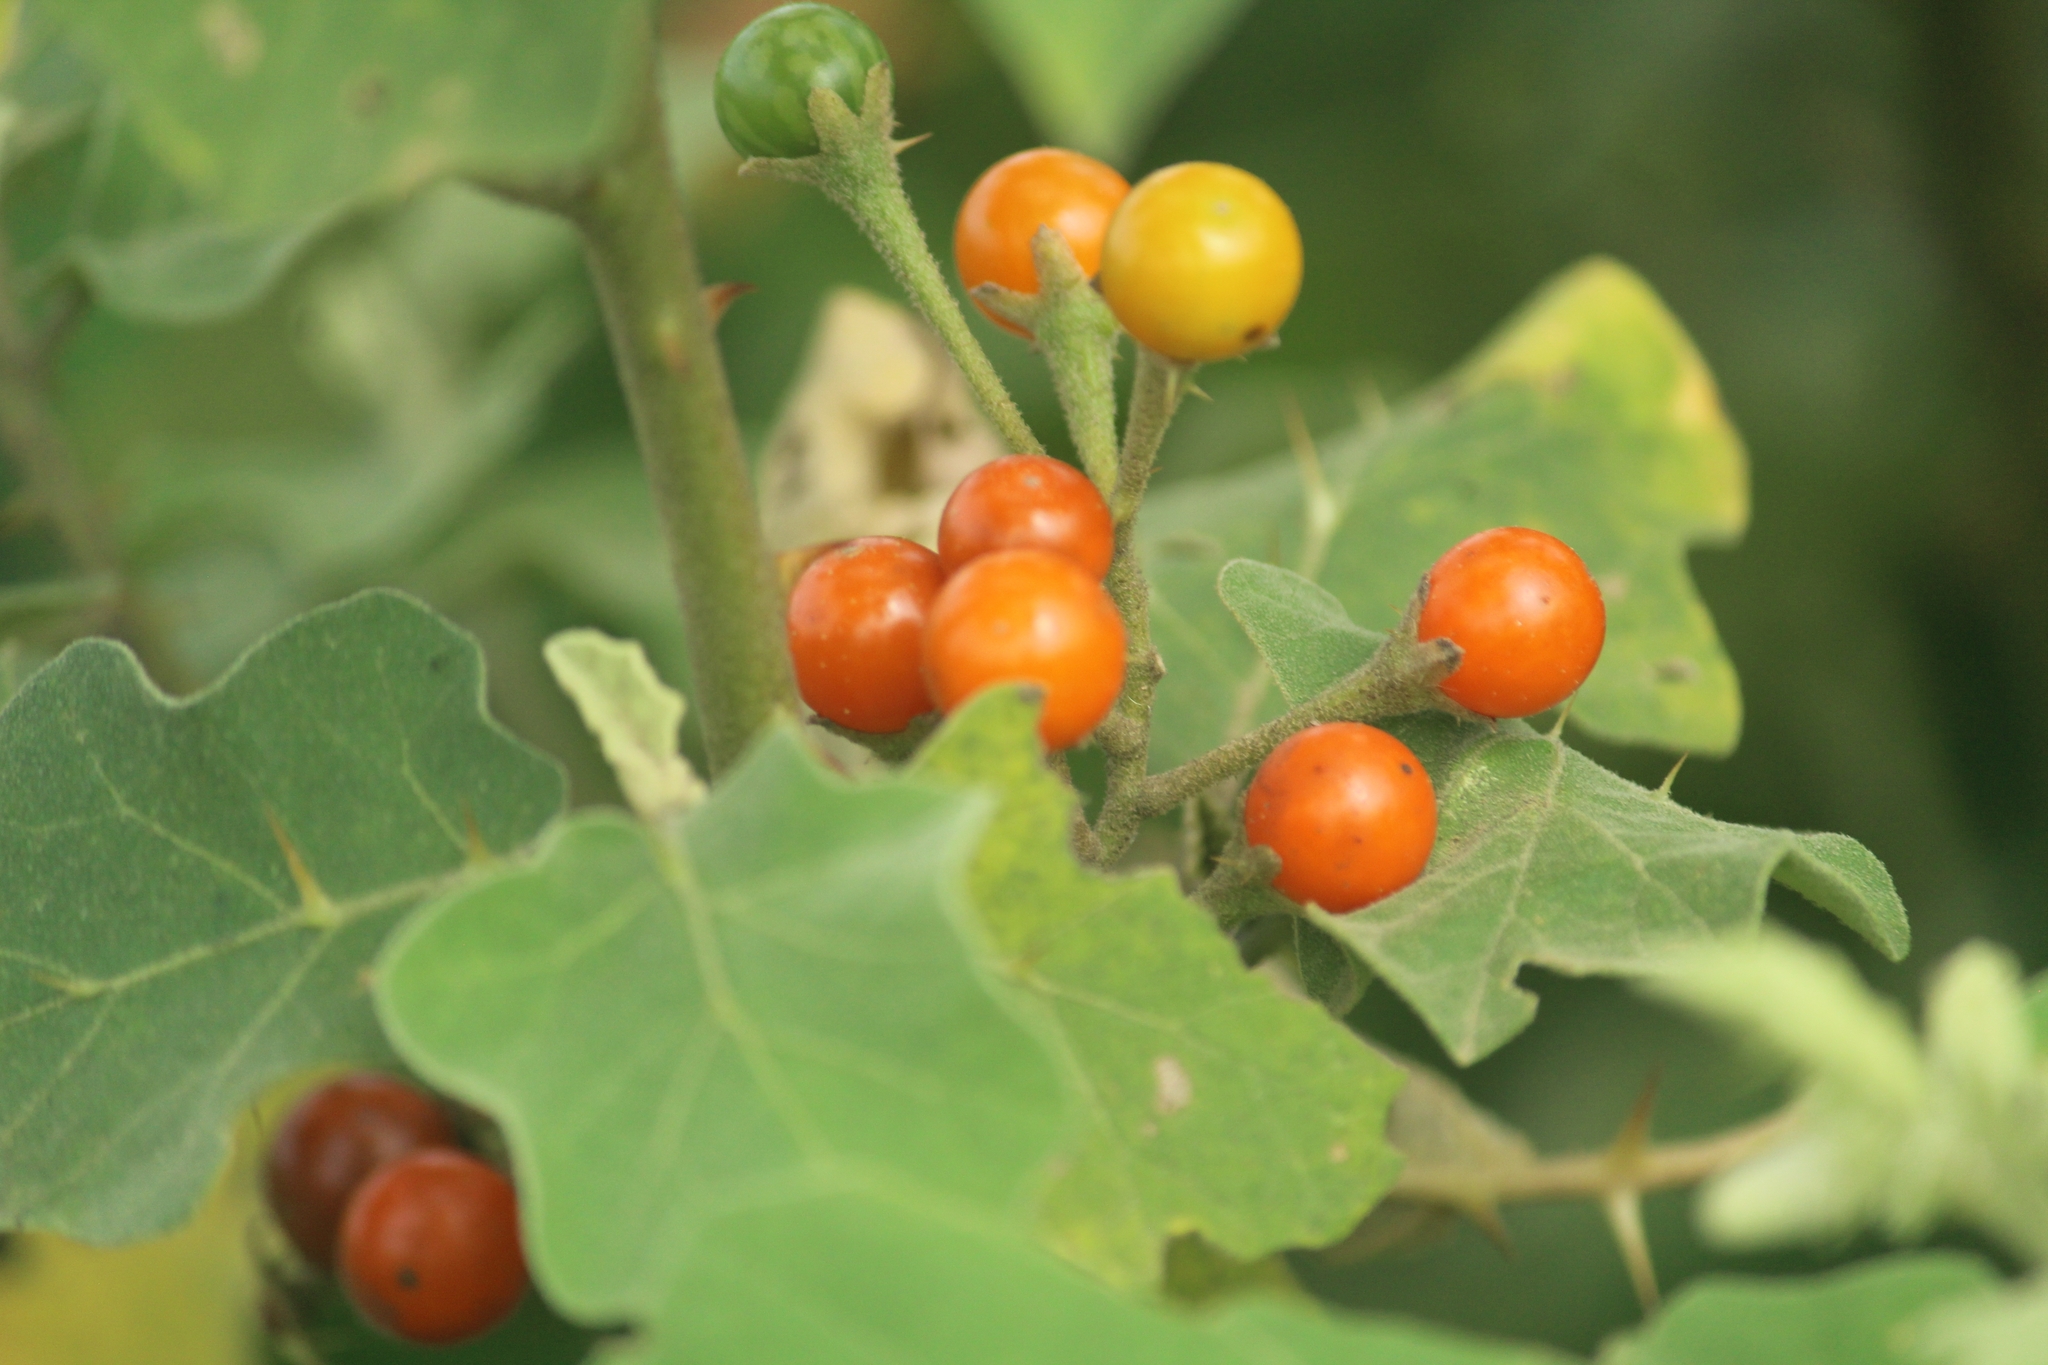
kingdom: Plantae
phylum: Tracheophyta
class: Magnoliopsida
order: Solanales
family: Solanaceae
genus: Solanum
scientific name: Solanum violaceum
